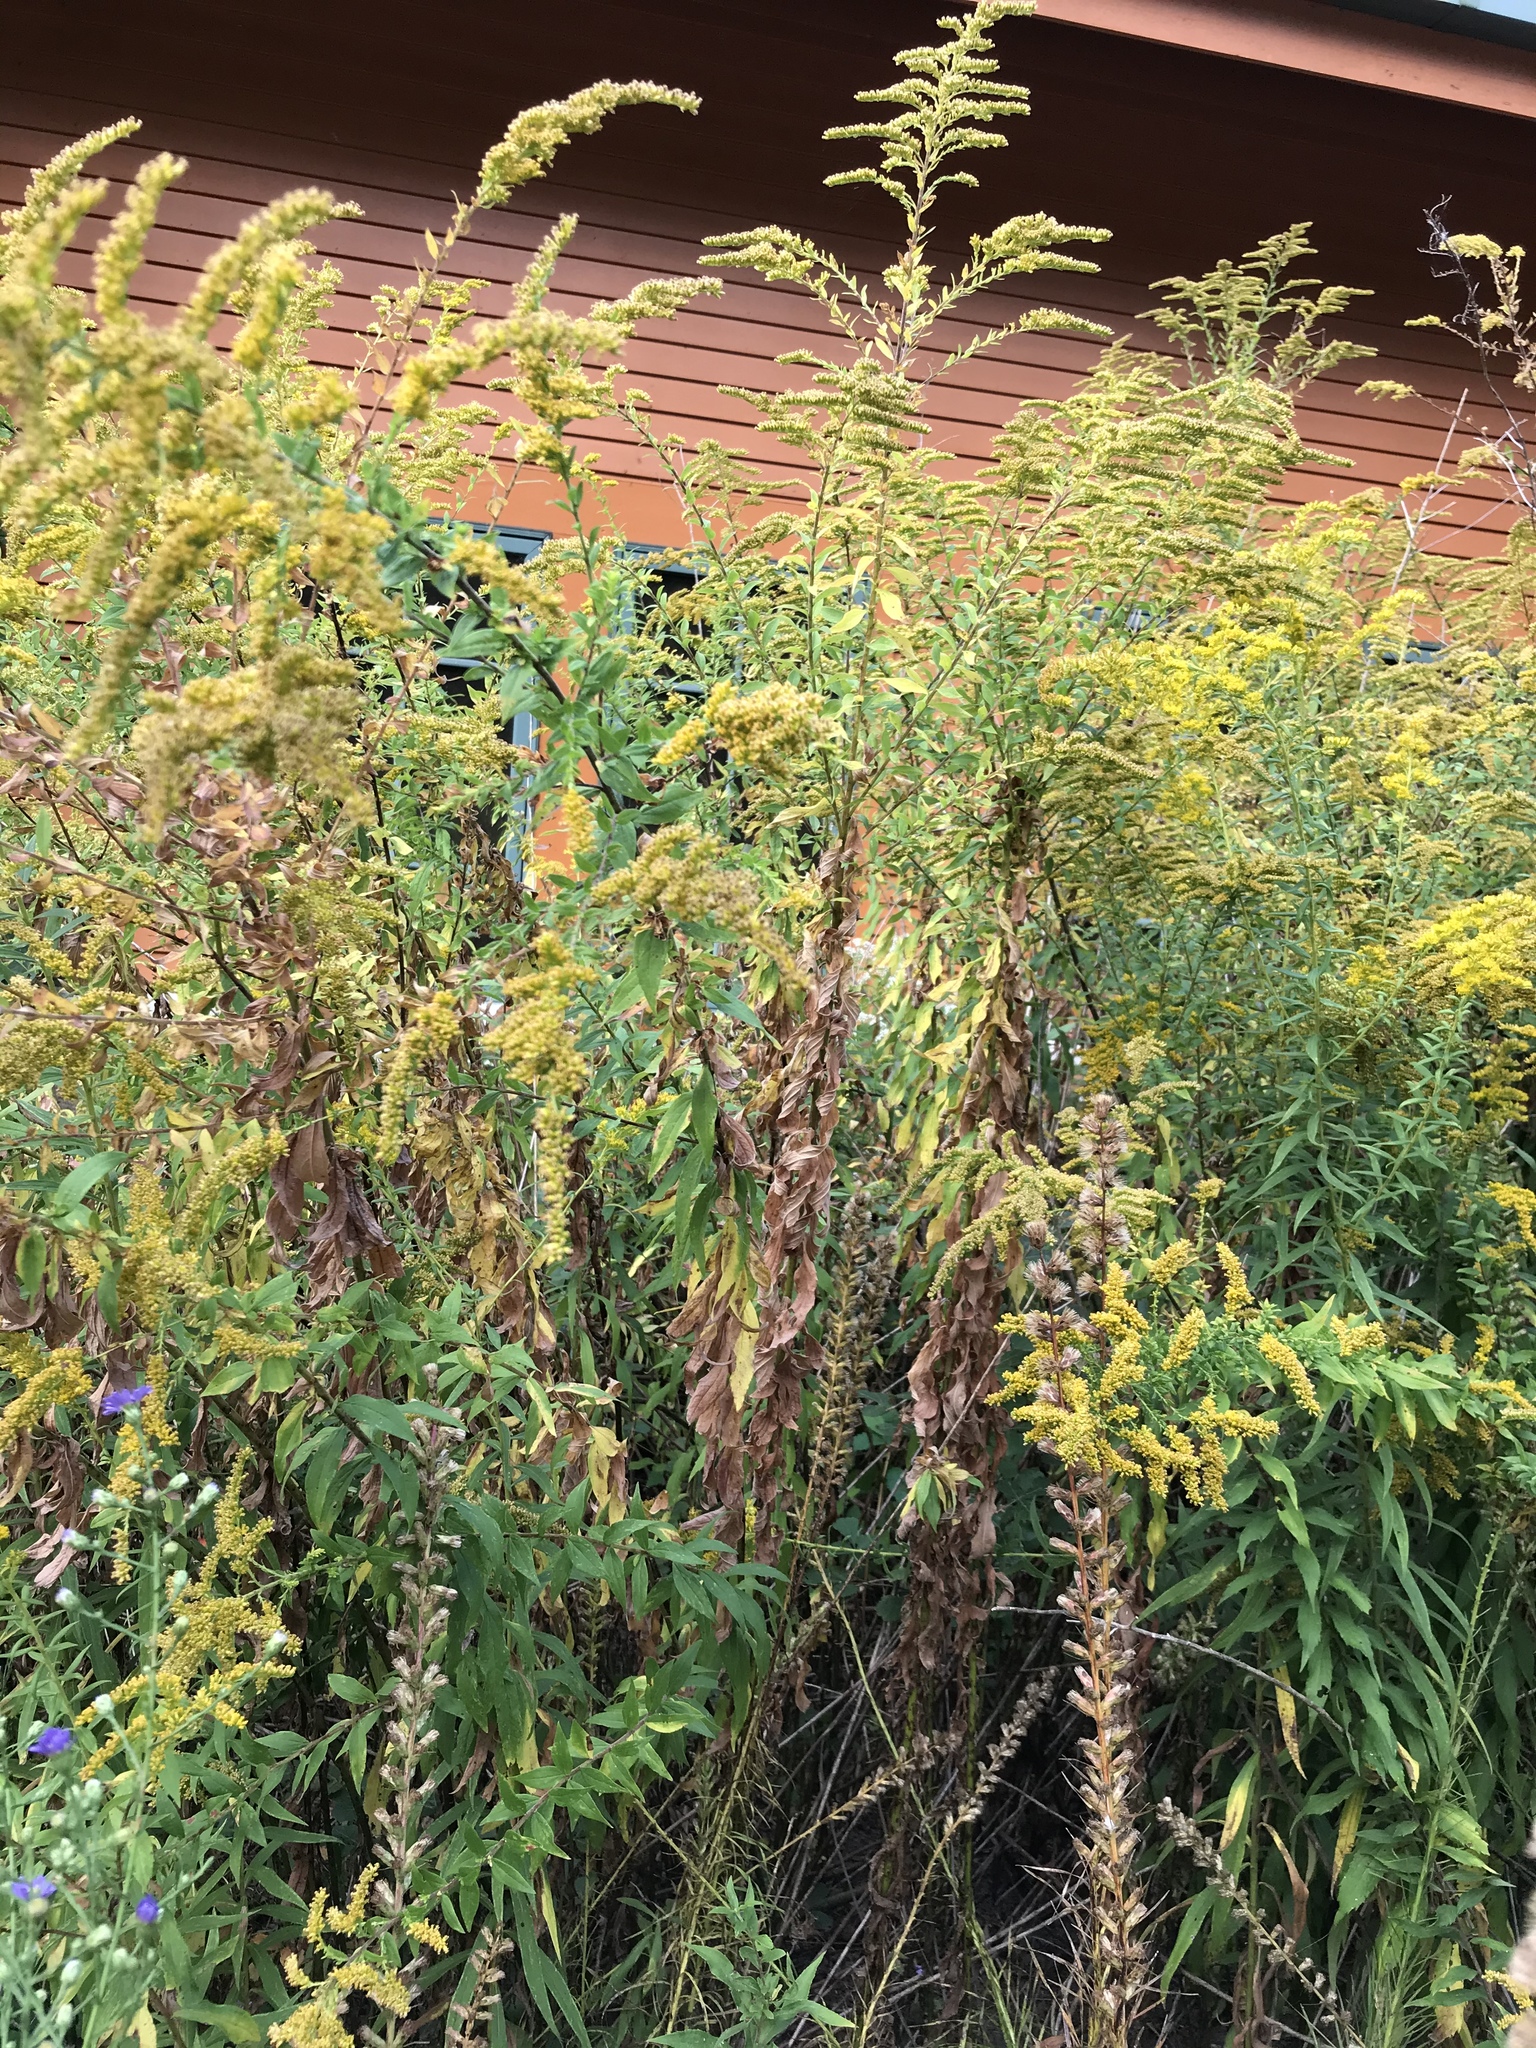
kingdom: Plantae
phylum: Tracheophyta
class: Magnoliopsida
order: Asterales
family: Asteraceae
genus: Solidago
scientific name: Solidago canadensis
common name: Canada goldenrod
